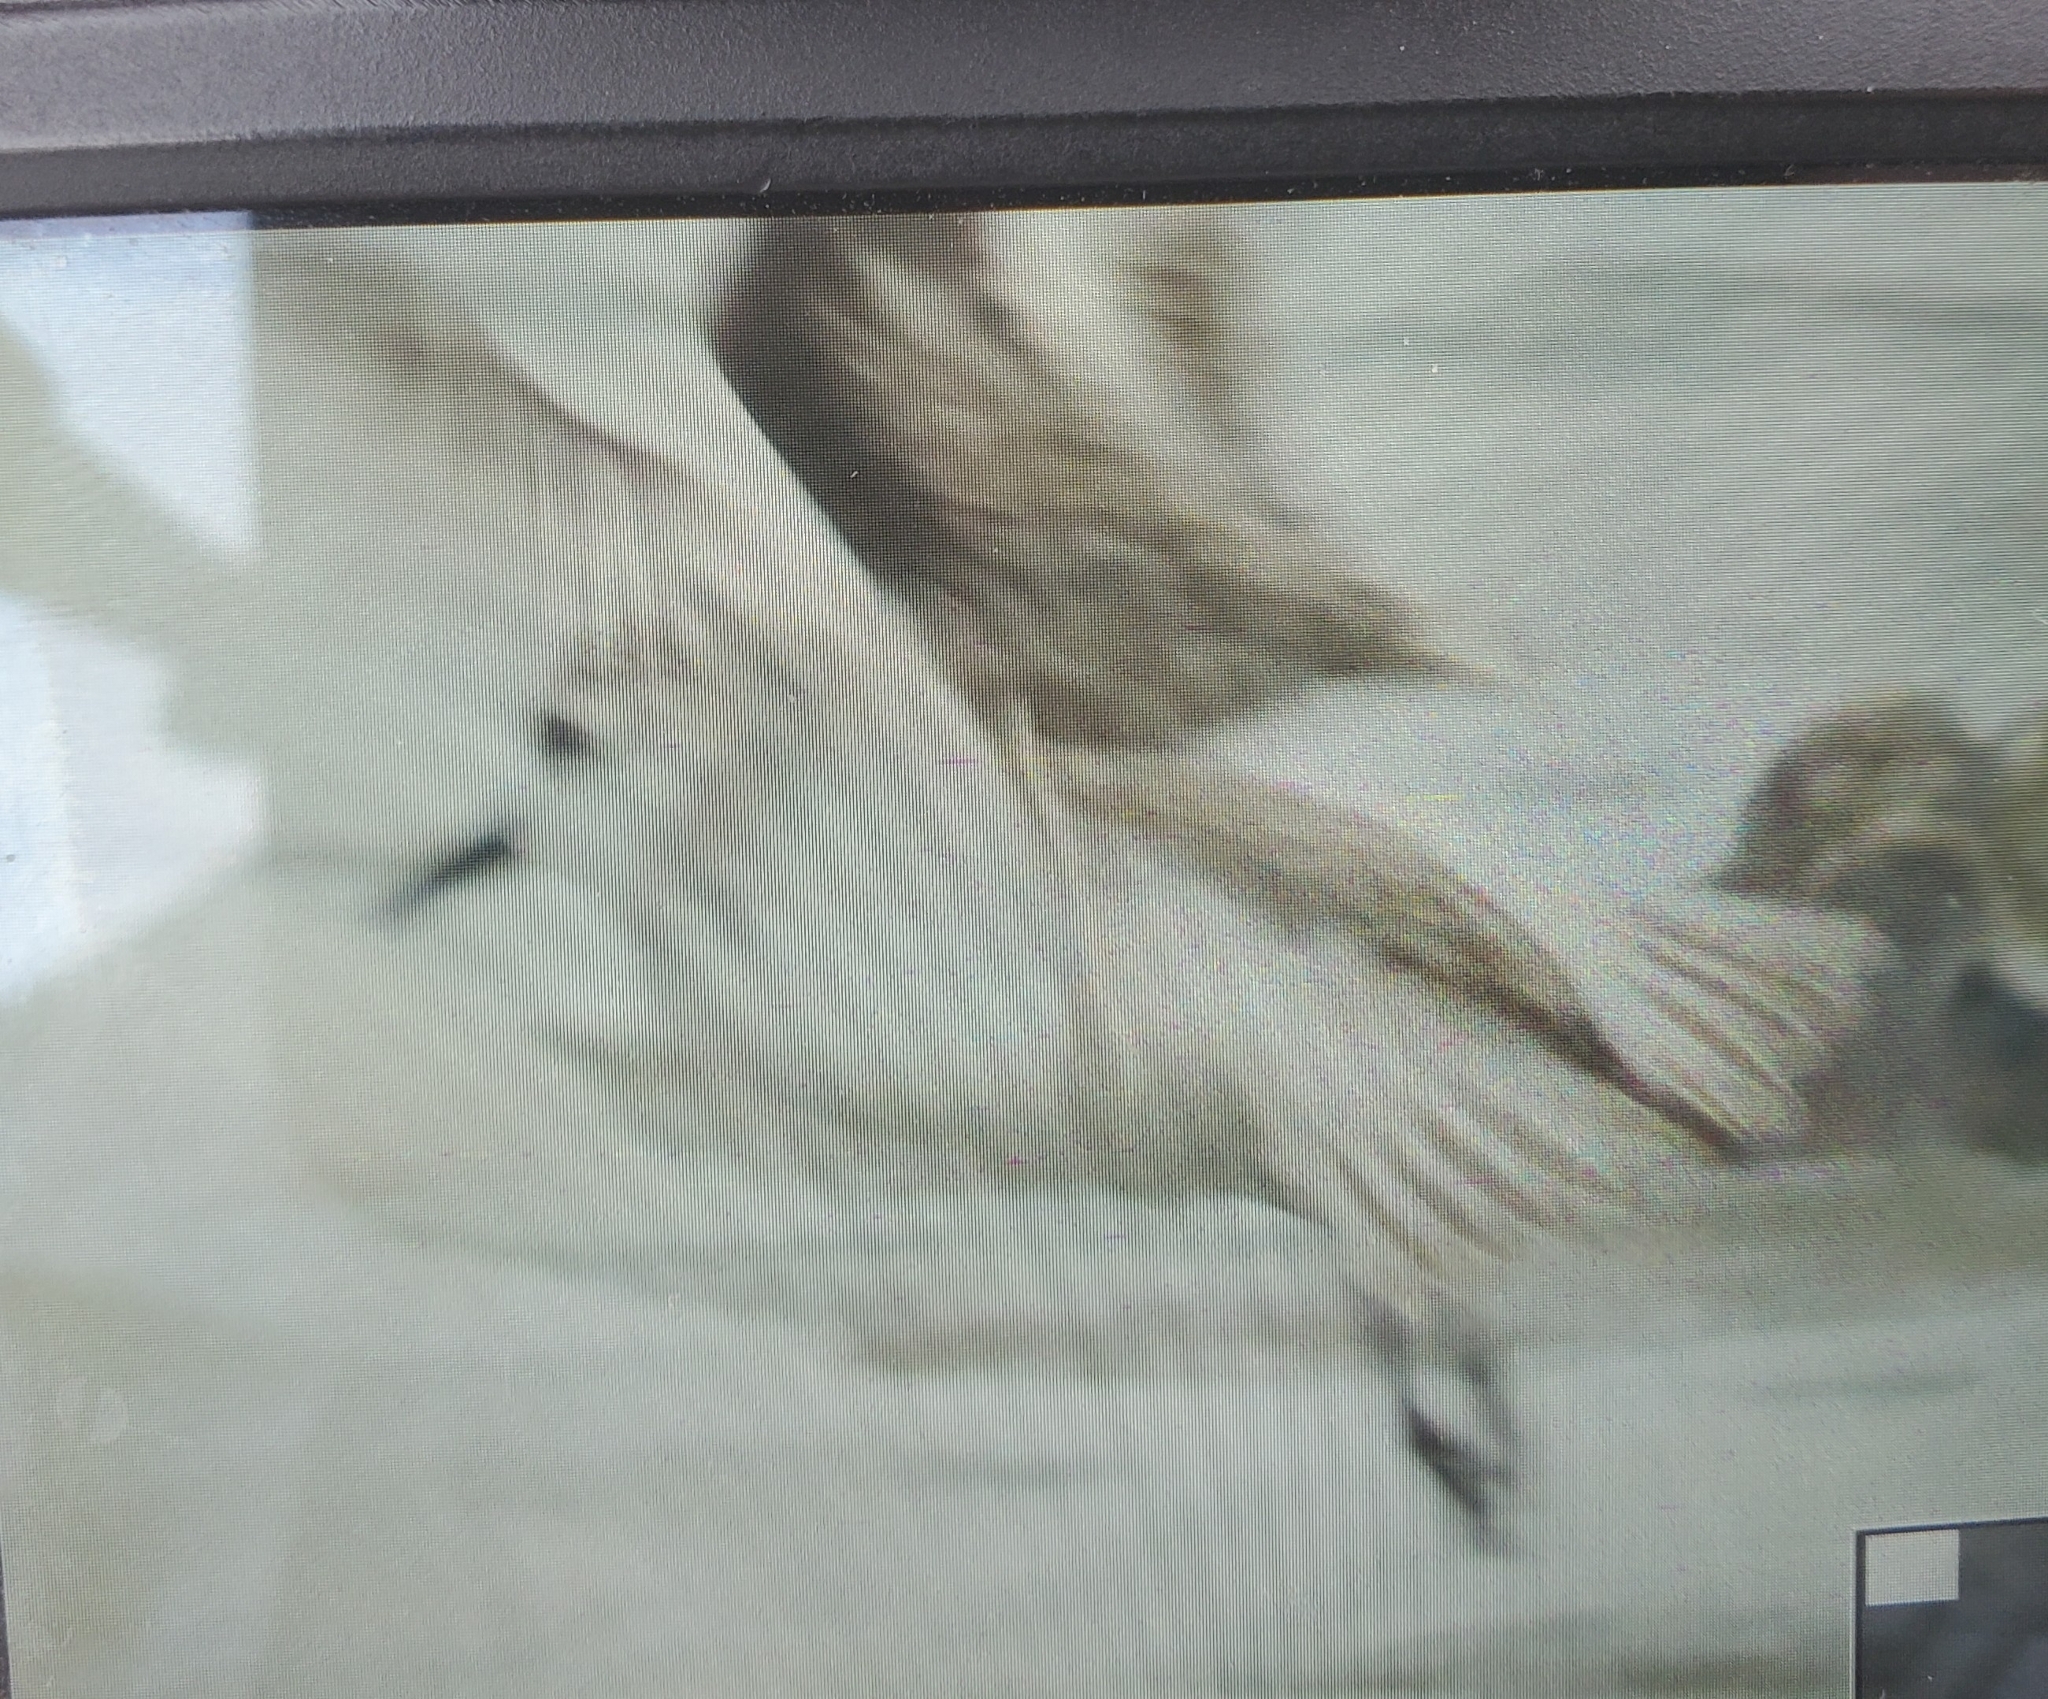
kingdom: Animalia
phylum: Chordata
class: Aves
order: Charadriiformes
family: Scolopacidae
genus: Calidris
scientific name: Calidris alba
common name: Sanderling
